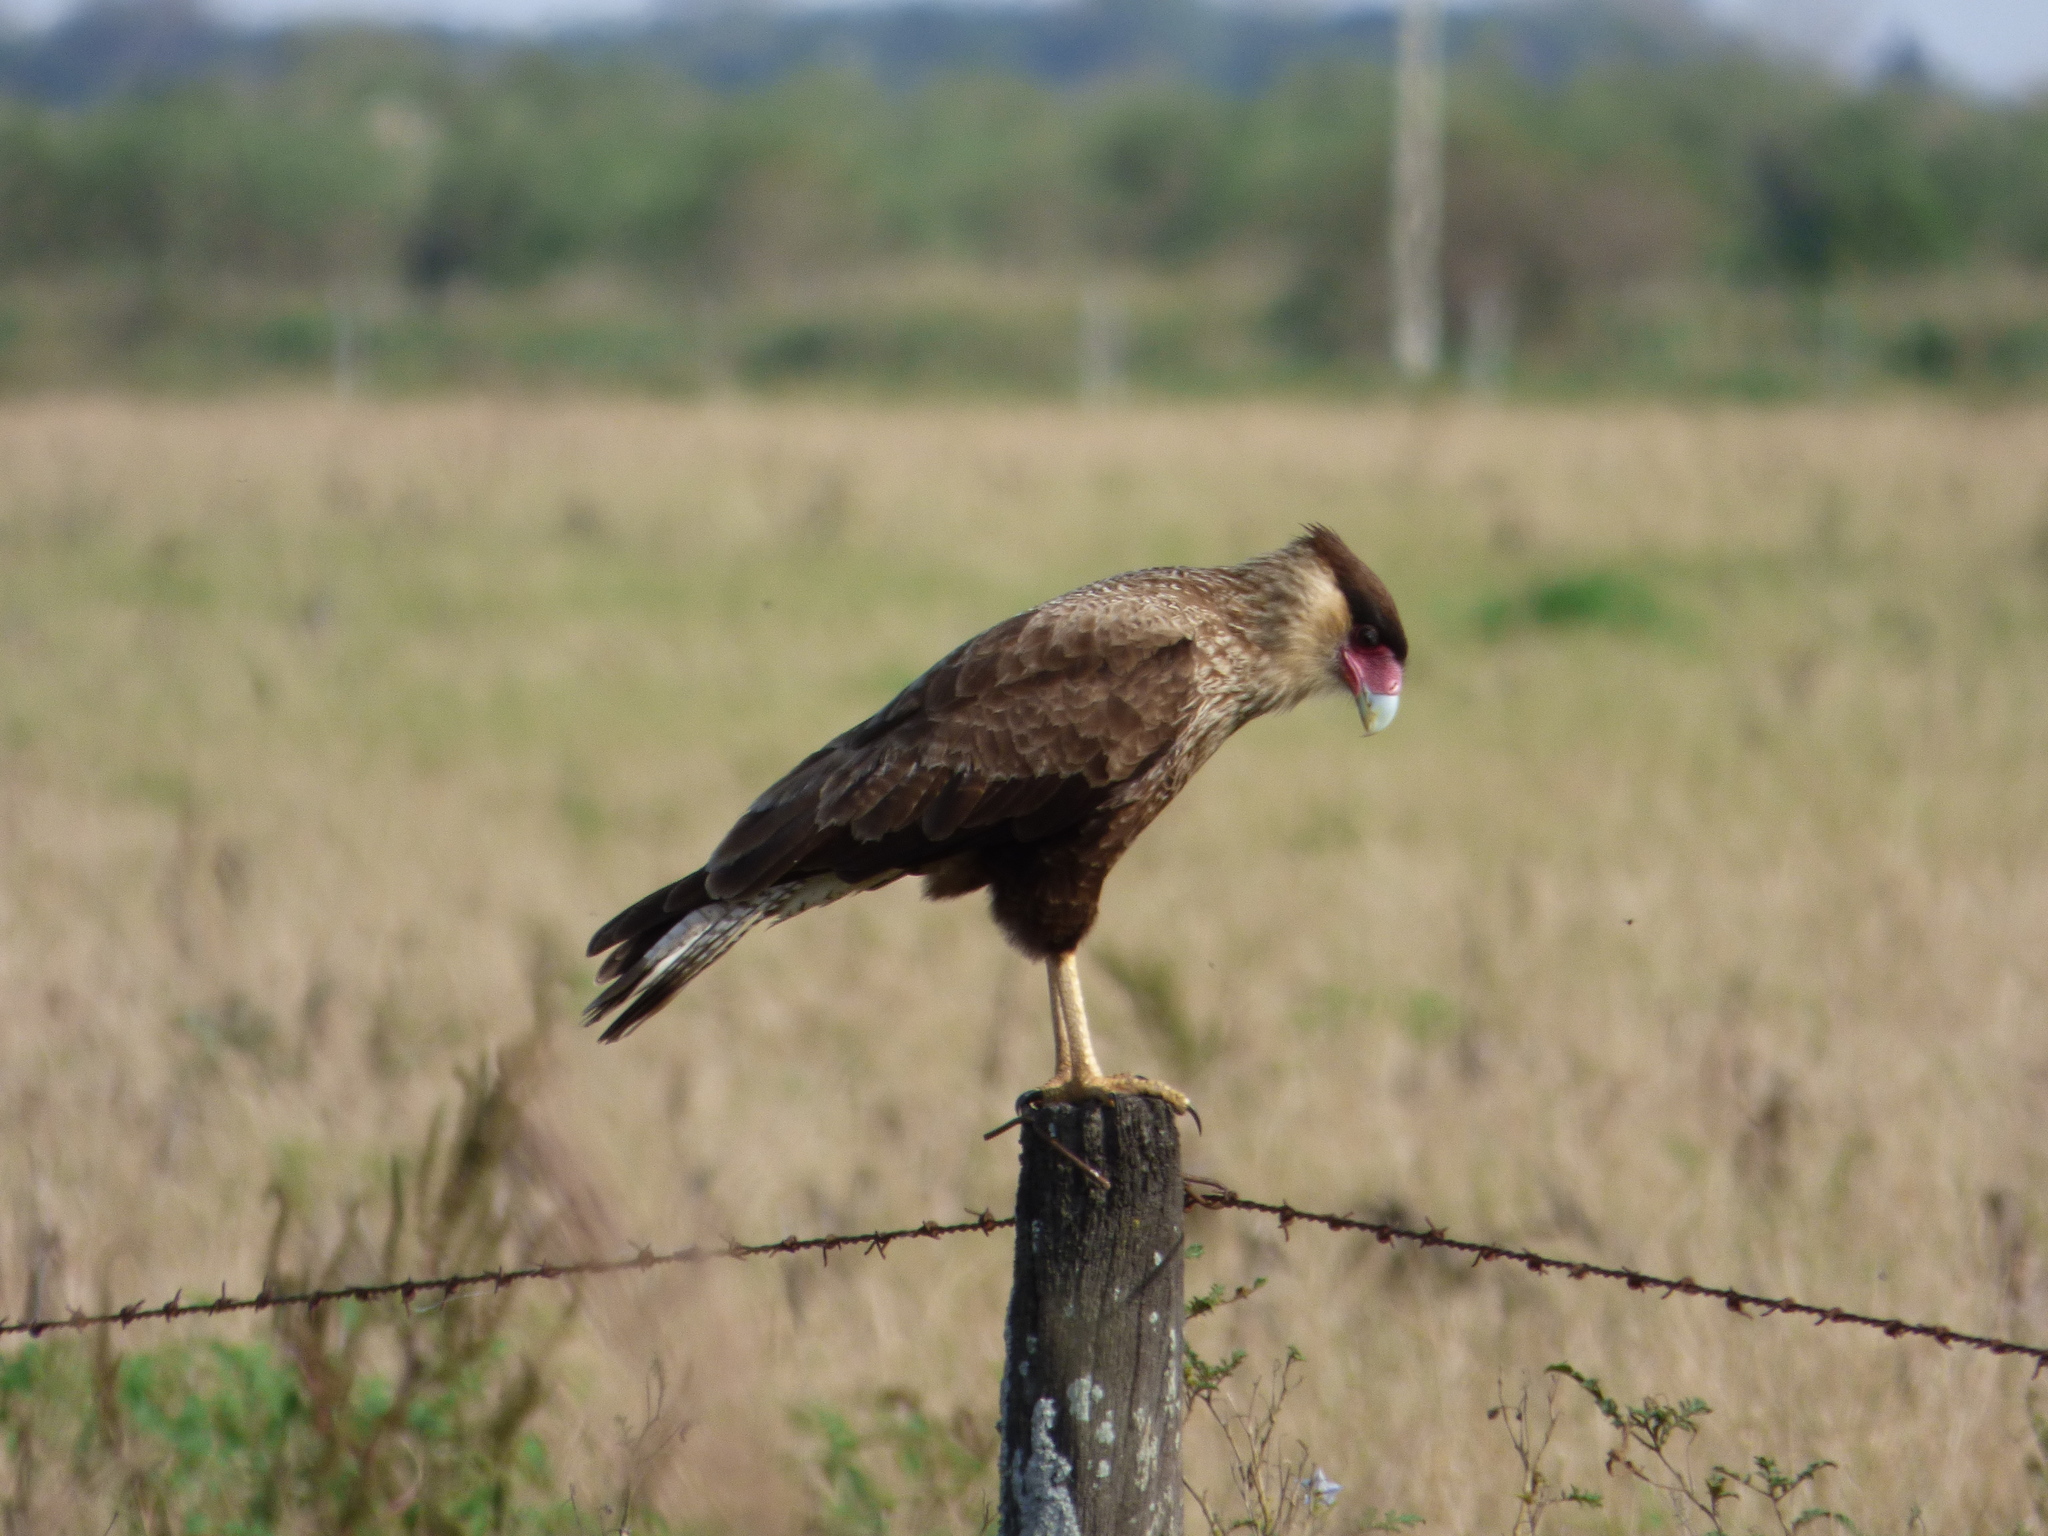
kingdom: Animalia
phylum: Chordata
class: Aves
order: Falconiformes
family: Falconidae
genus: Caracara
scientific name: Caracara plancus
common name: Southern caracara
